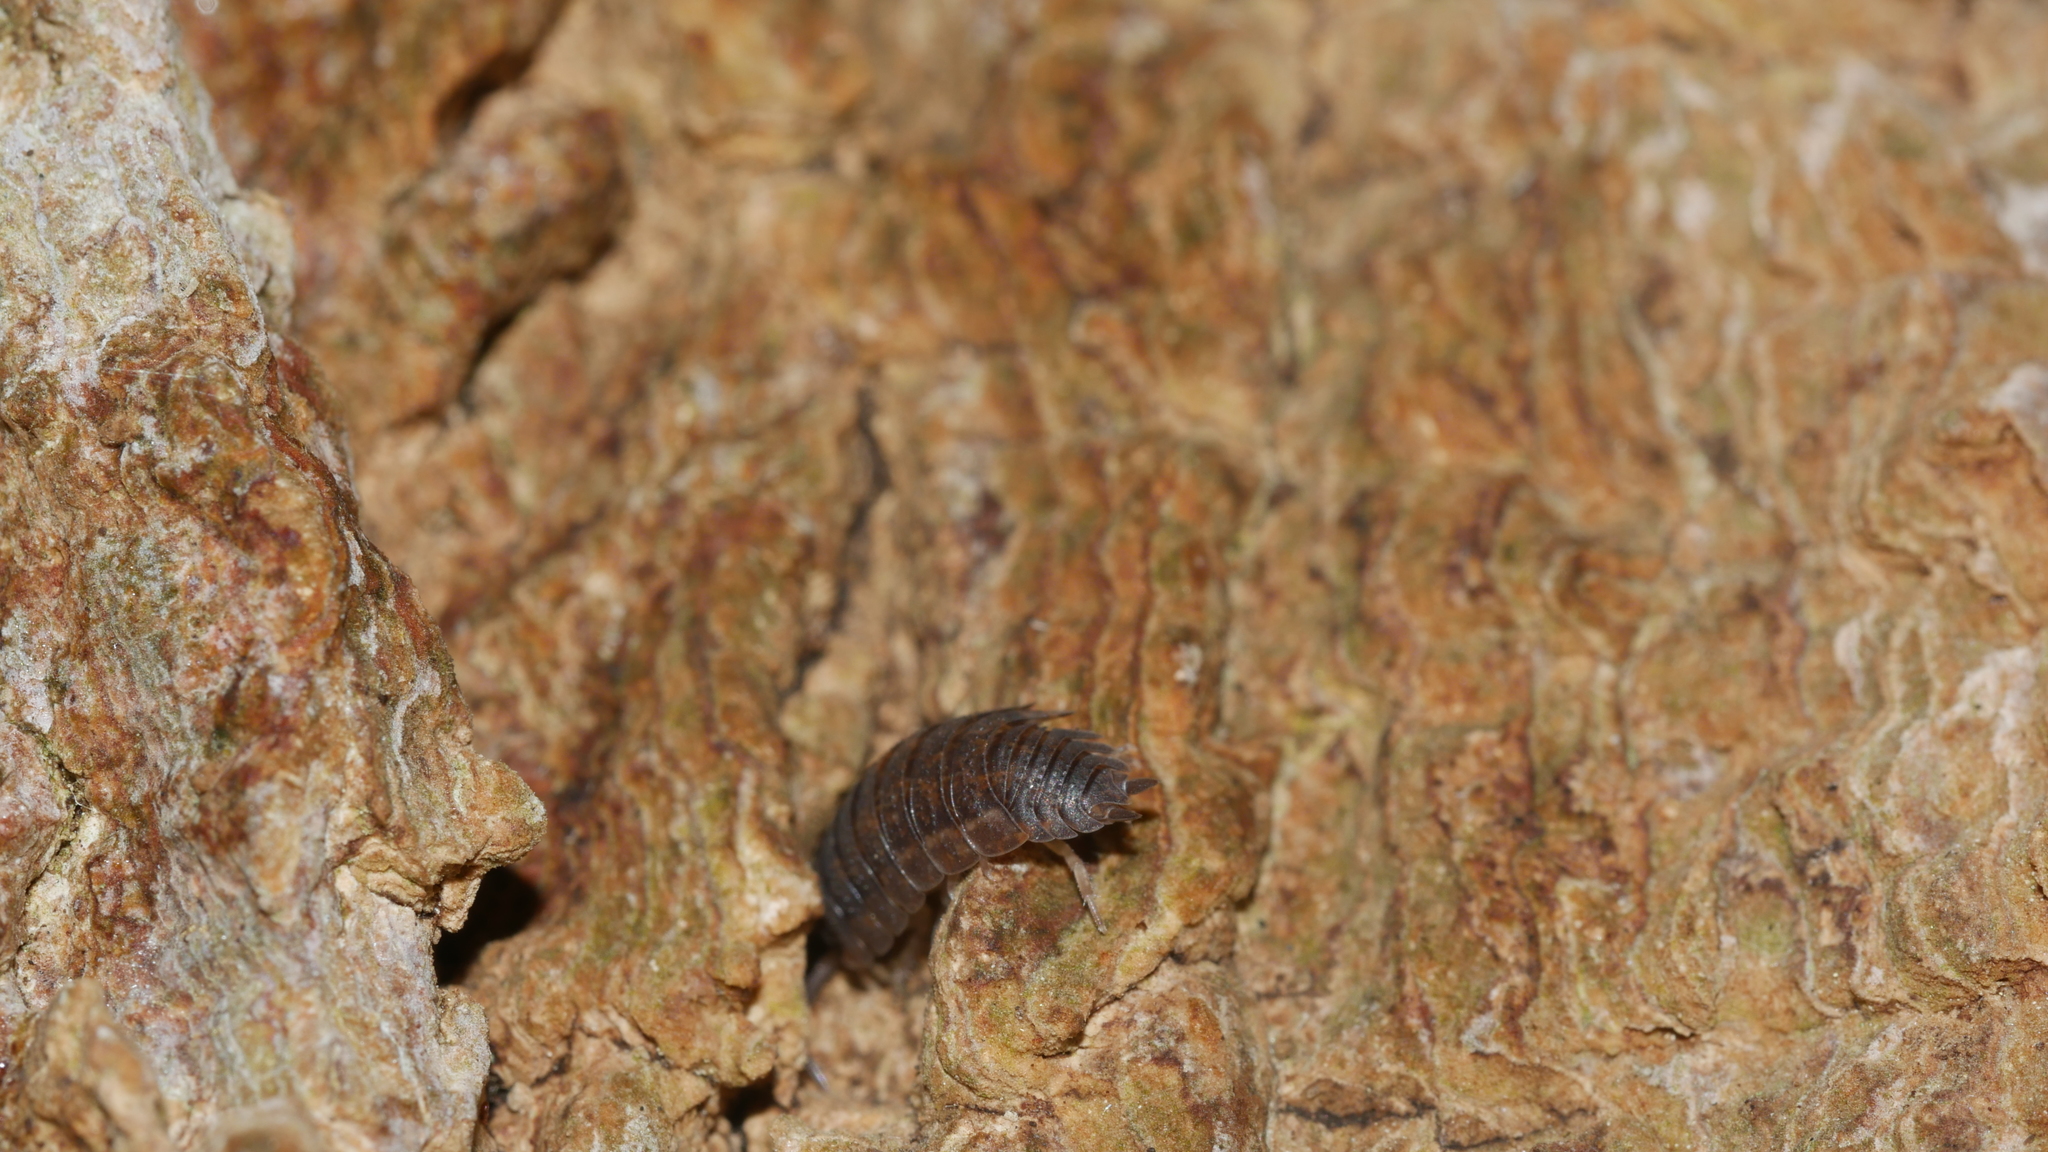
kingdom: Animalia
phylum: Arthropoda
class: Malacostraca
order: Isopoda
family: Porcellionidae
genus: Porcellio
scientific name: Porcellio scaber
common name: Common rough woodlouse
